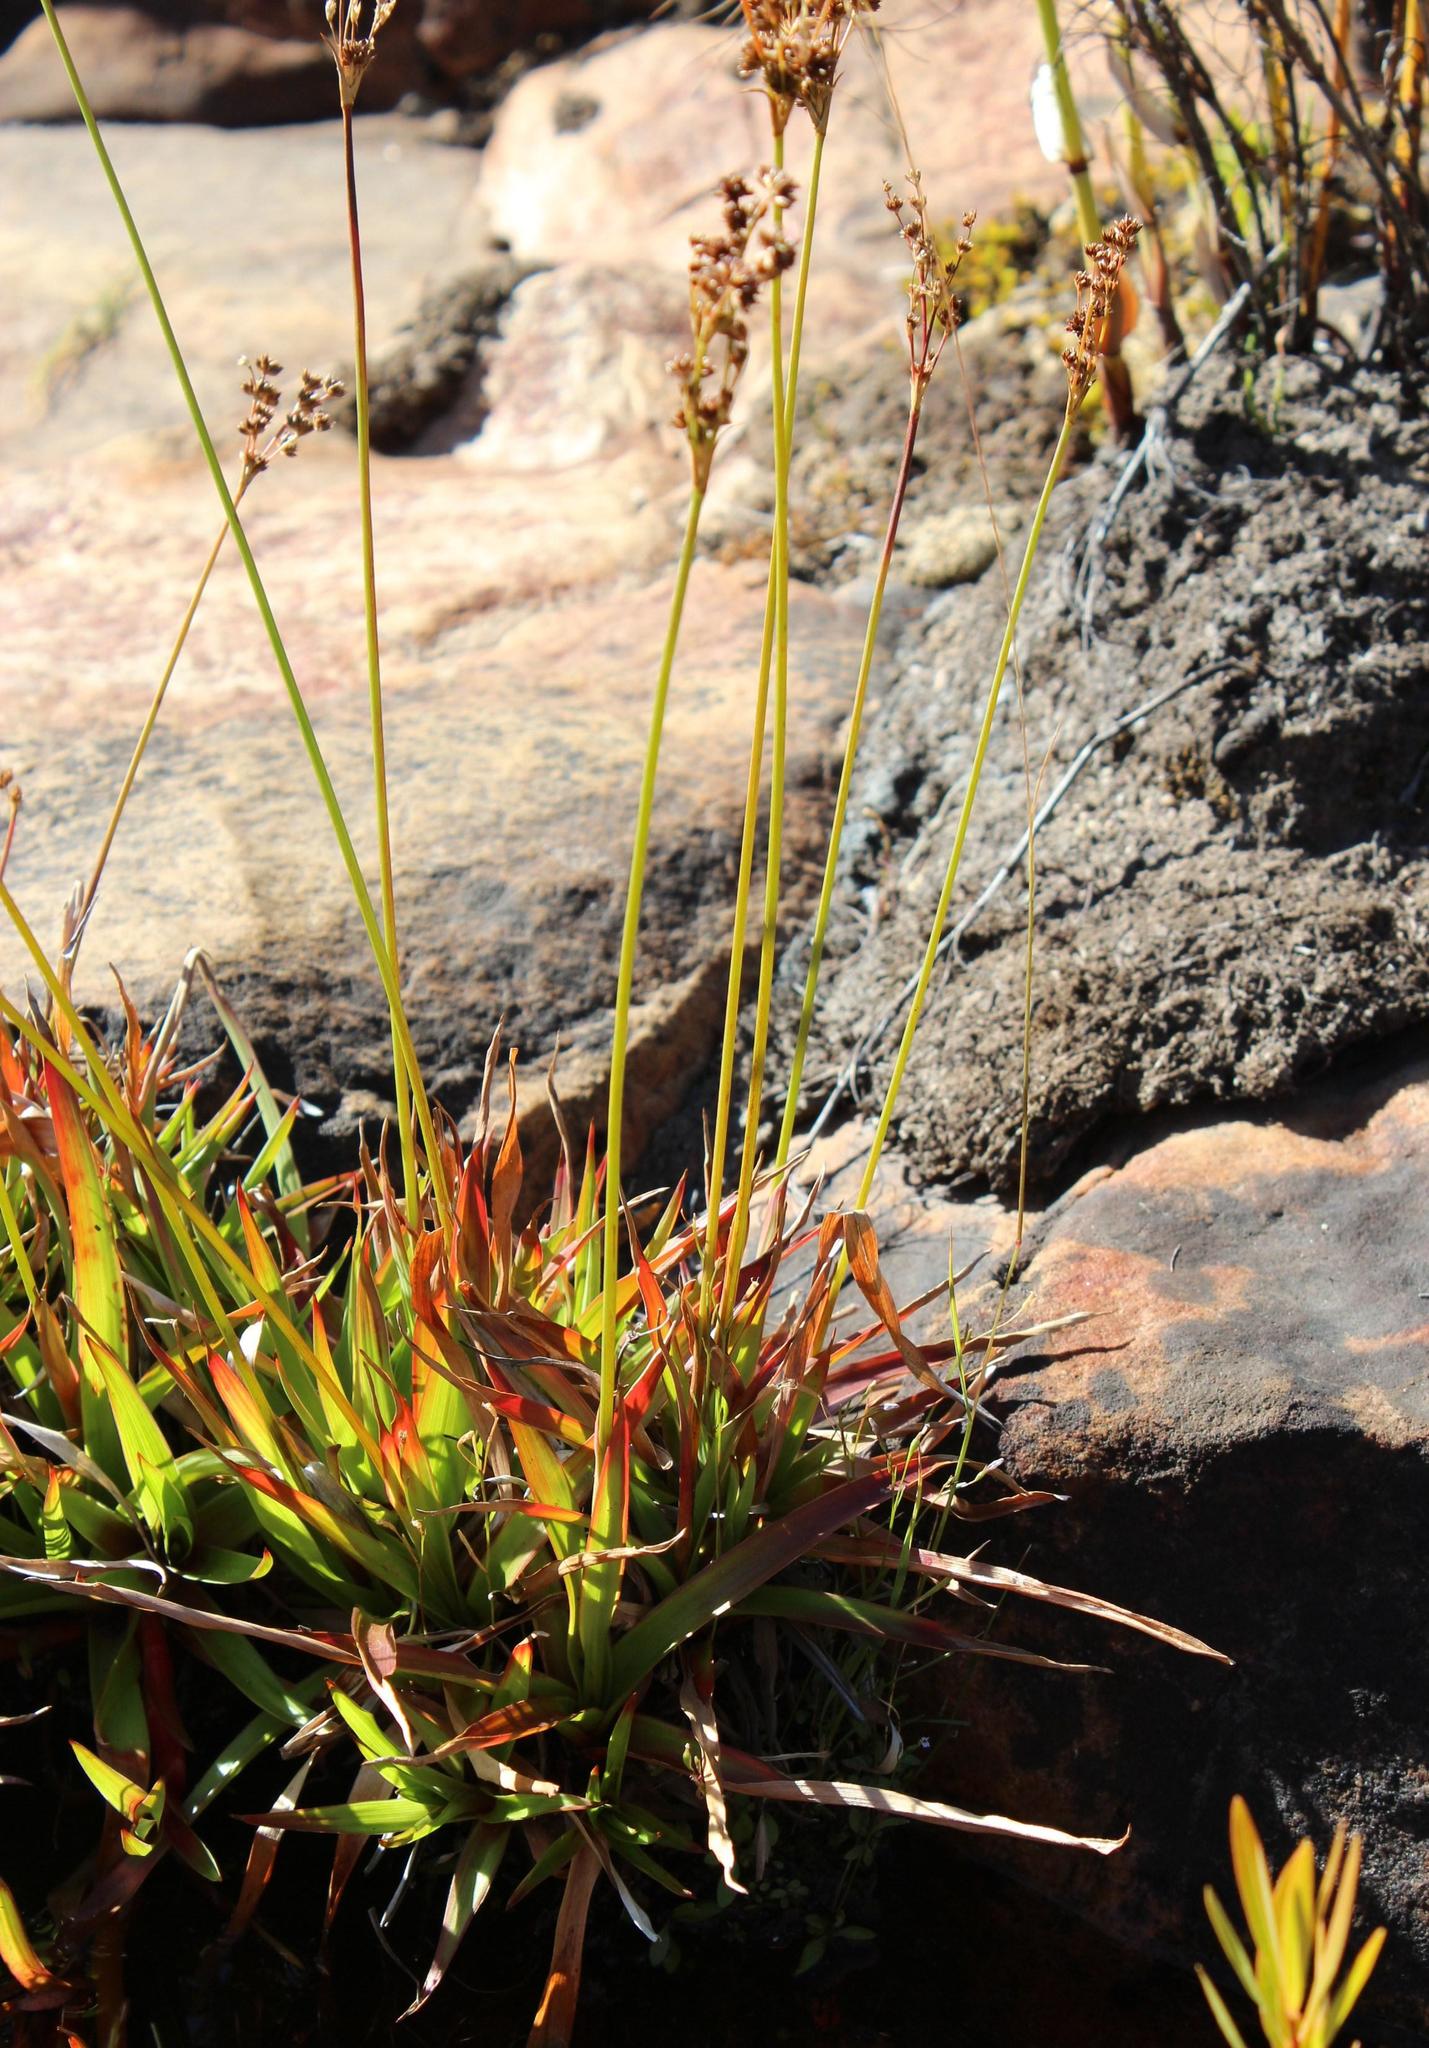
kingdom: Plantae
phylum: Tracheophyta
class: Liliopsida
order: Poales
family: Juncaceae
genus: Juncus
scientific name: Juncus lomatophyllus
